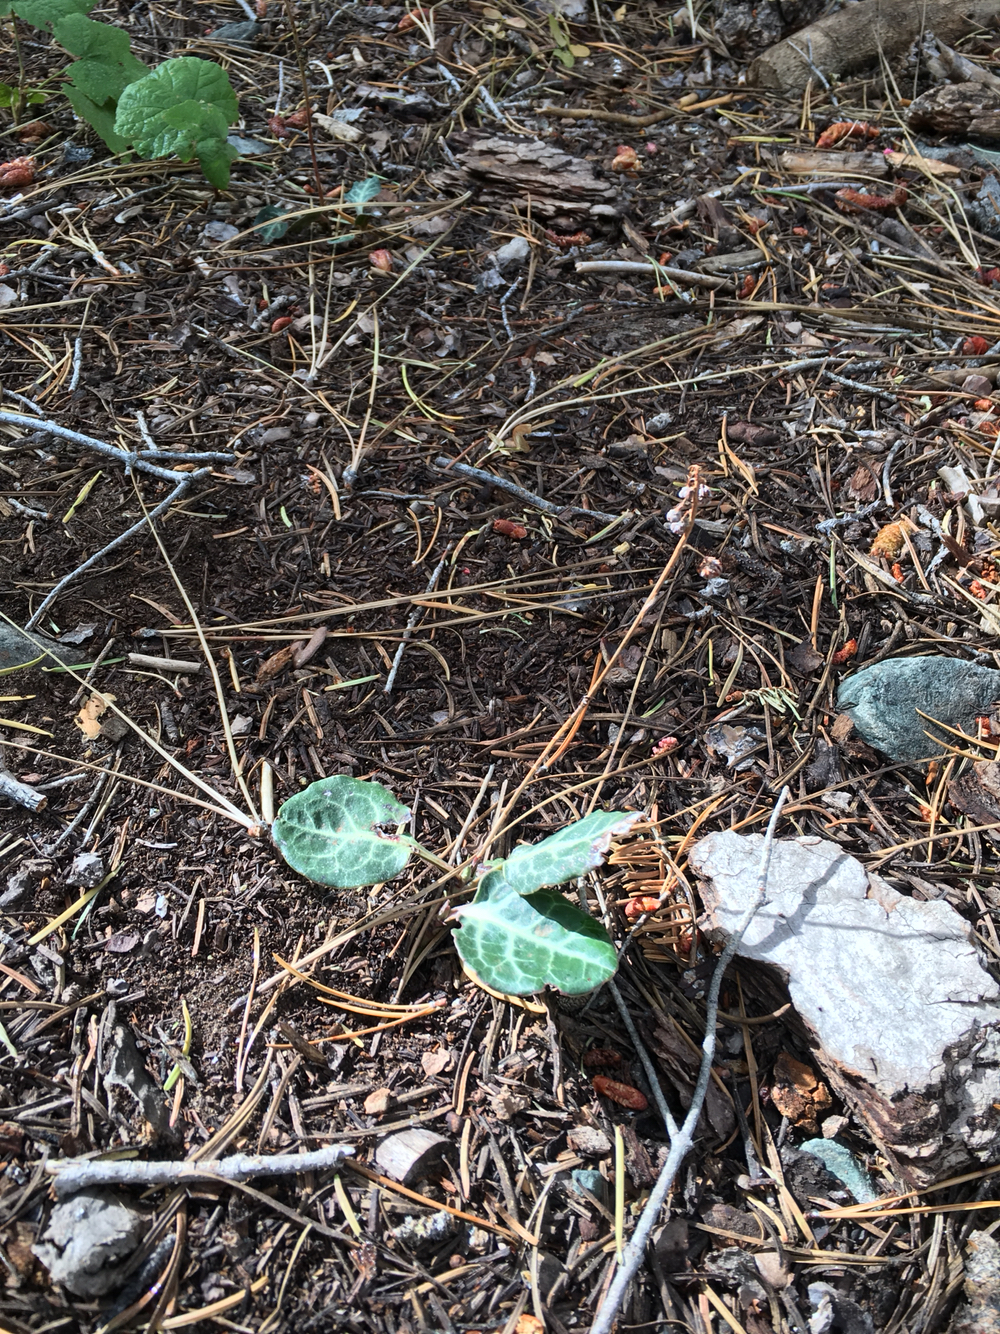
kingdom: Plantae
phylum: Tracheophyta
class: Magnoliopsida
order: Ericales
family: Ericaceae
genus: Pyrola
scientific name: Pyrola picta
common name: White-vein wintergreen
